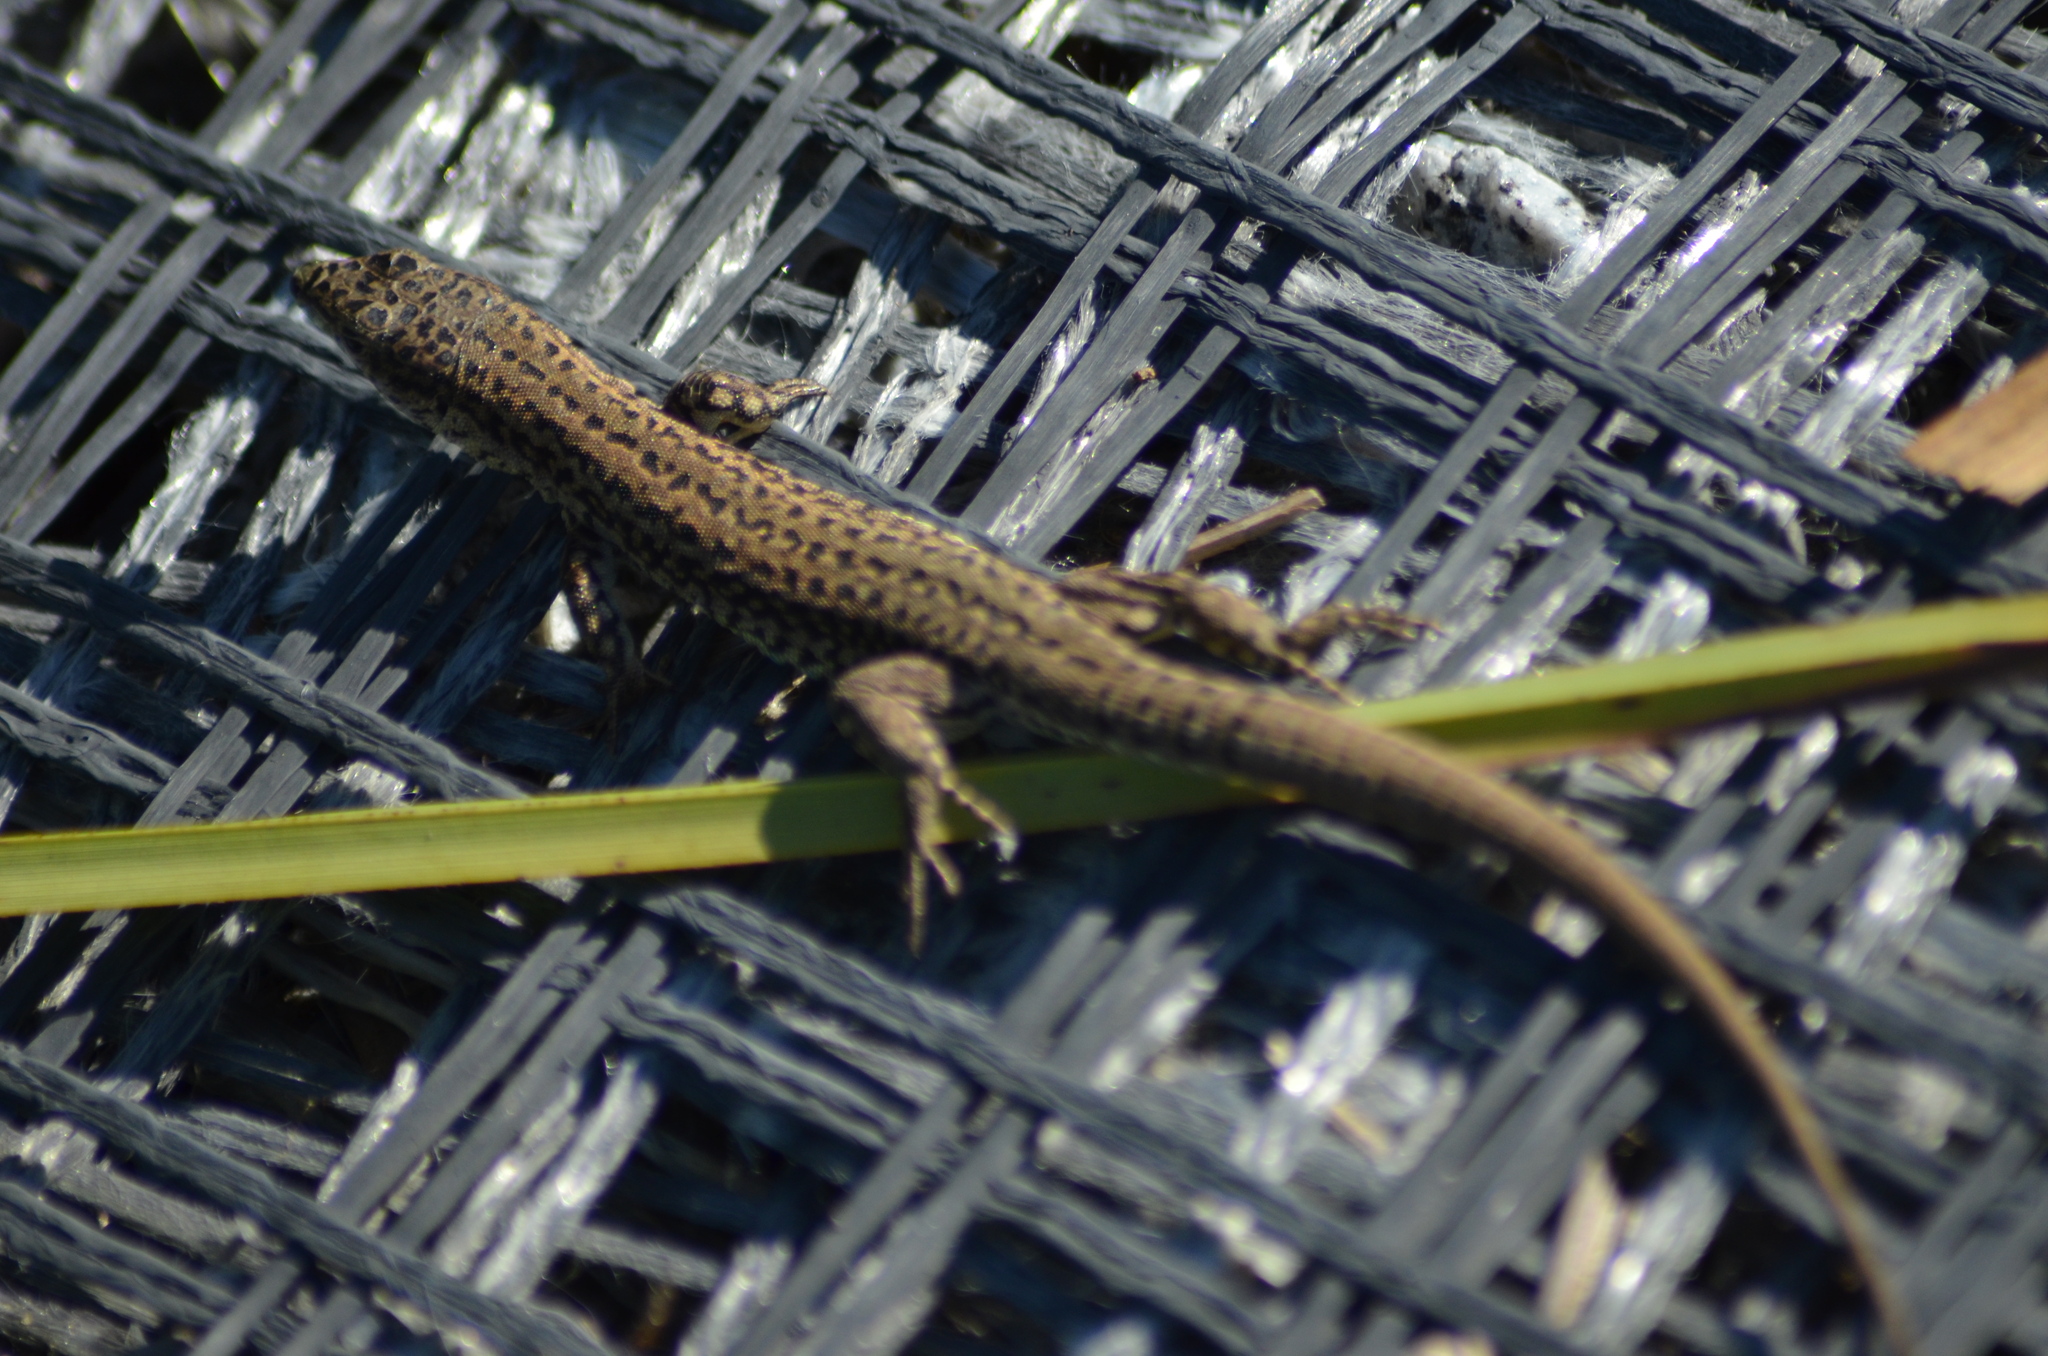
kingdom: Animalia
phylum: Chordata
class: Squamata
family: Lacertidae
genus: Podarcis
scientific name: Podarcis muralis
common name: Common wall lizard
